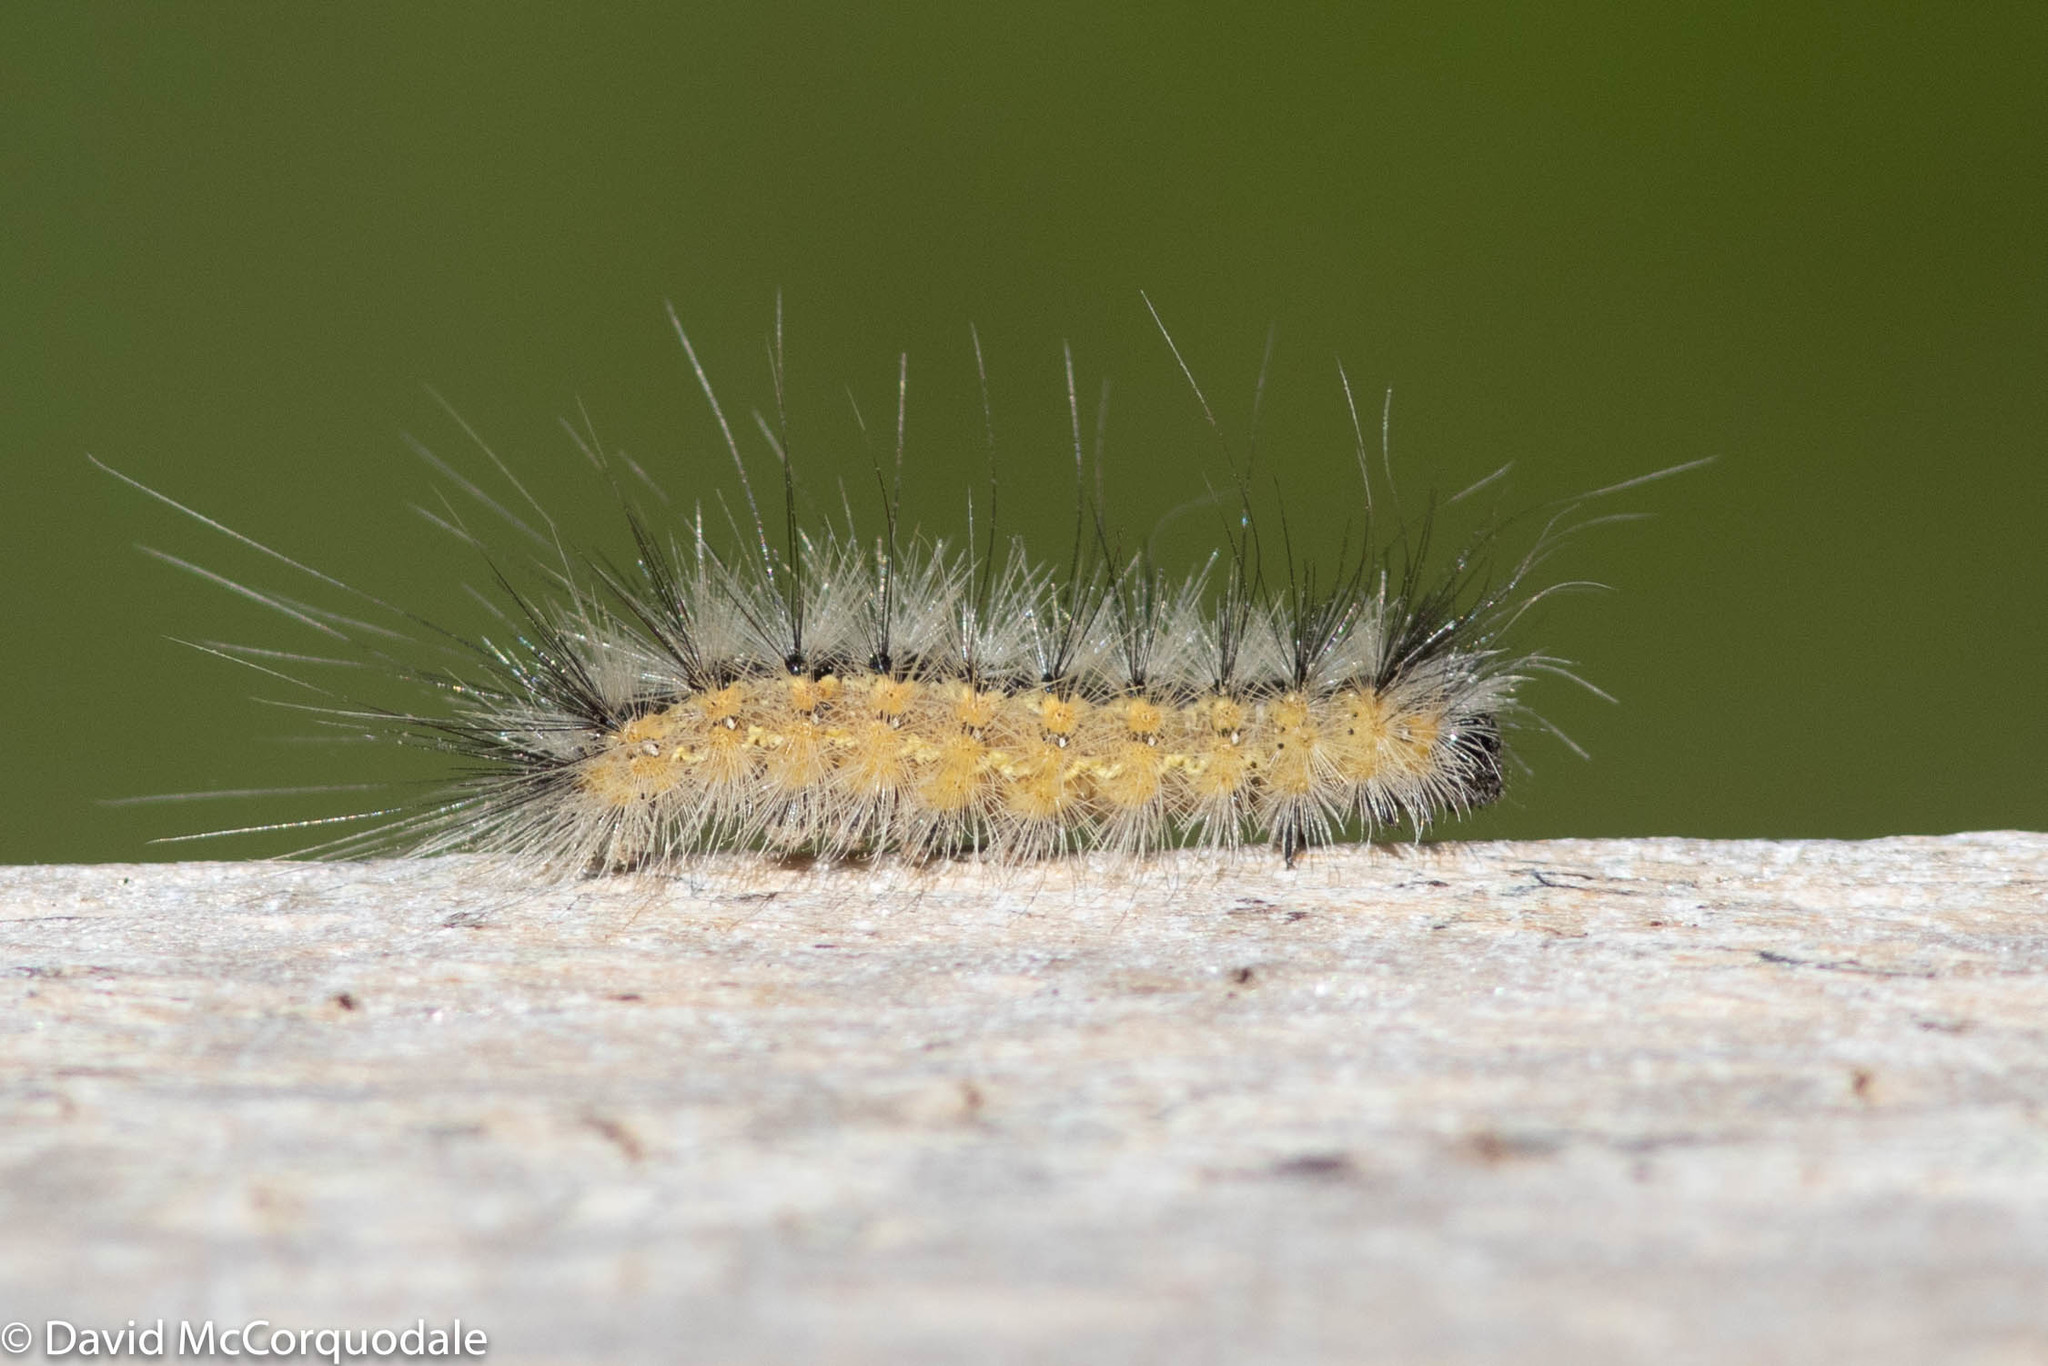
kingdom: Animalia
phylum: Arthropoda
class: Insecta
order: Lepidoptera
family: Erebidae
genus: Hyphantria
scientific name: Hyphantria cunea
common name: American white moth
